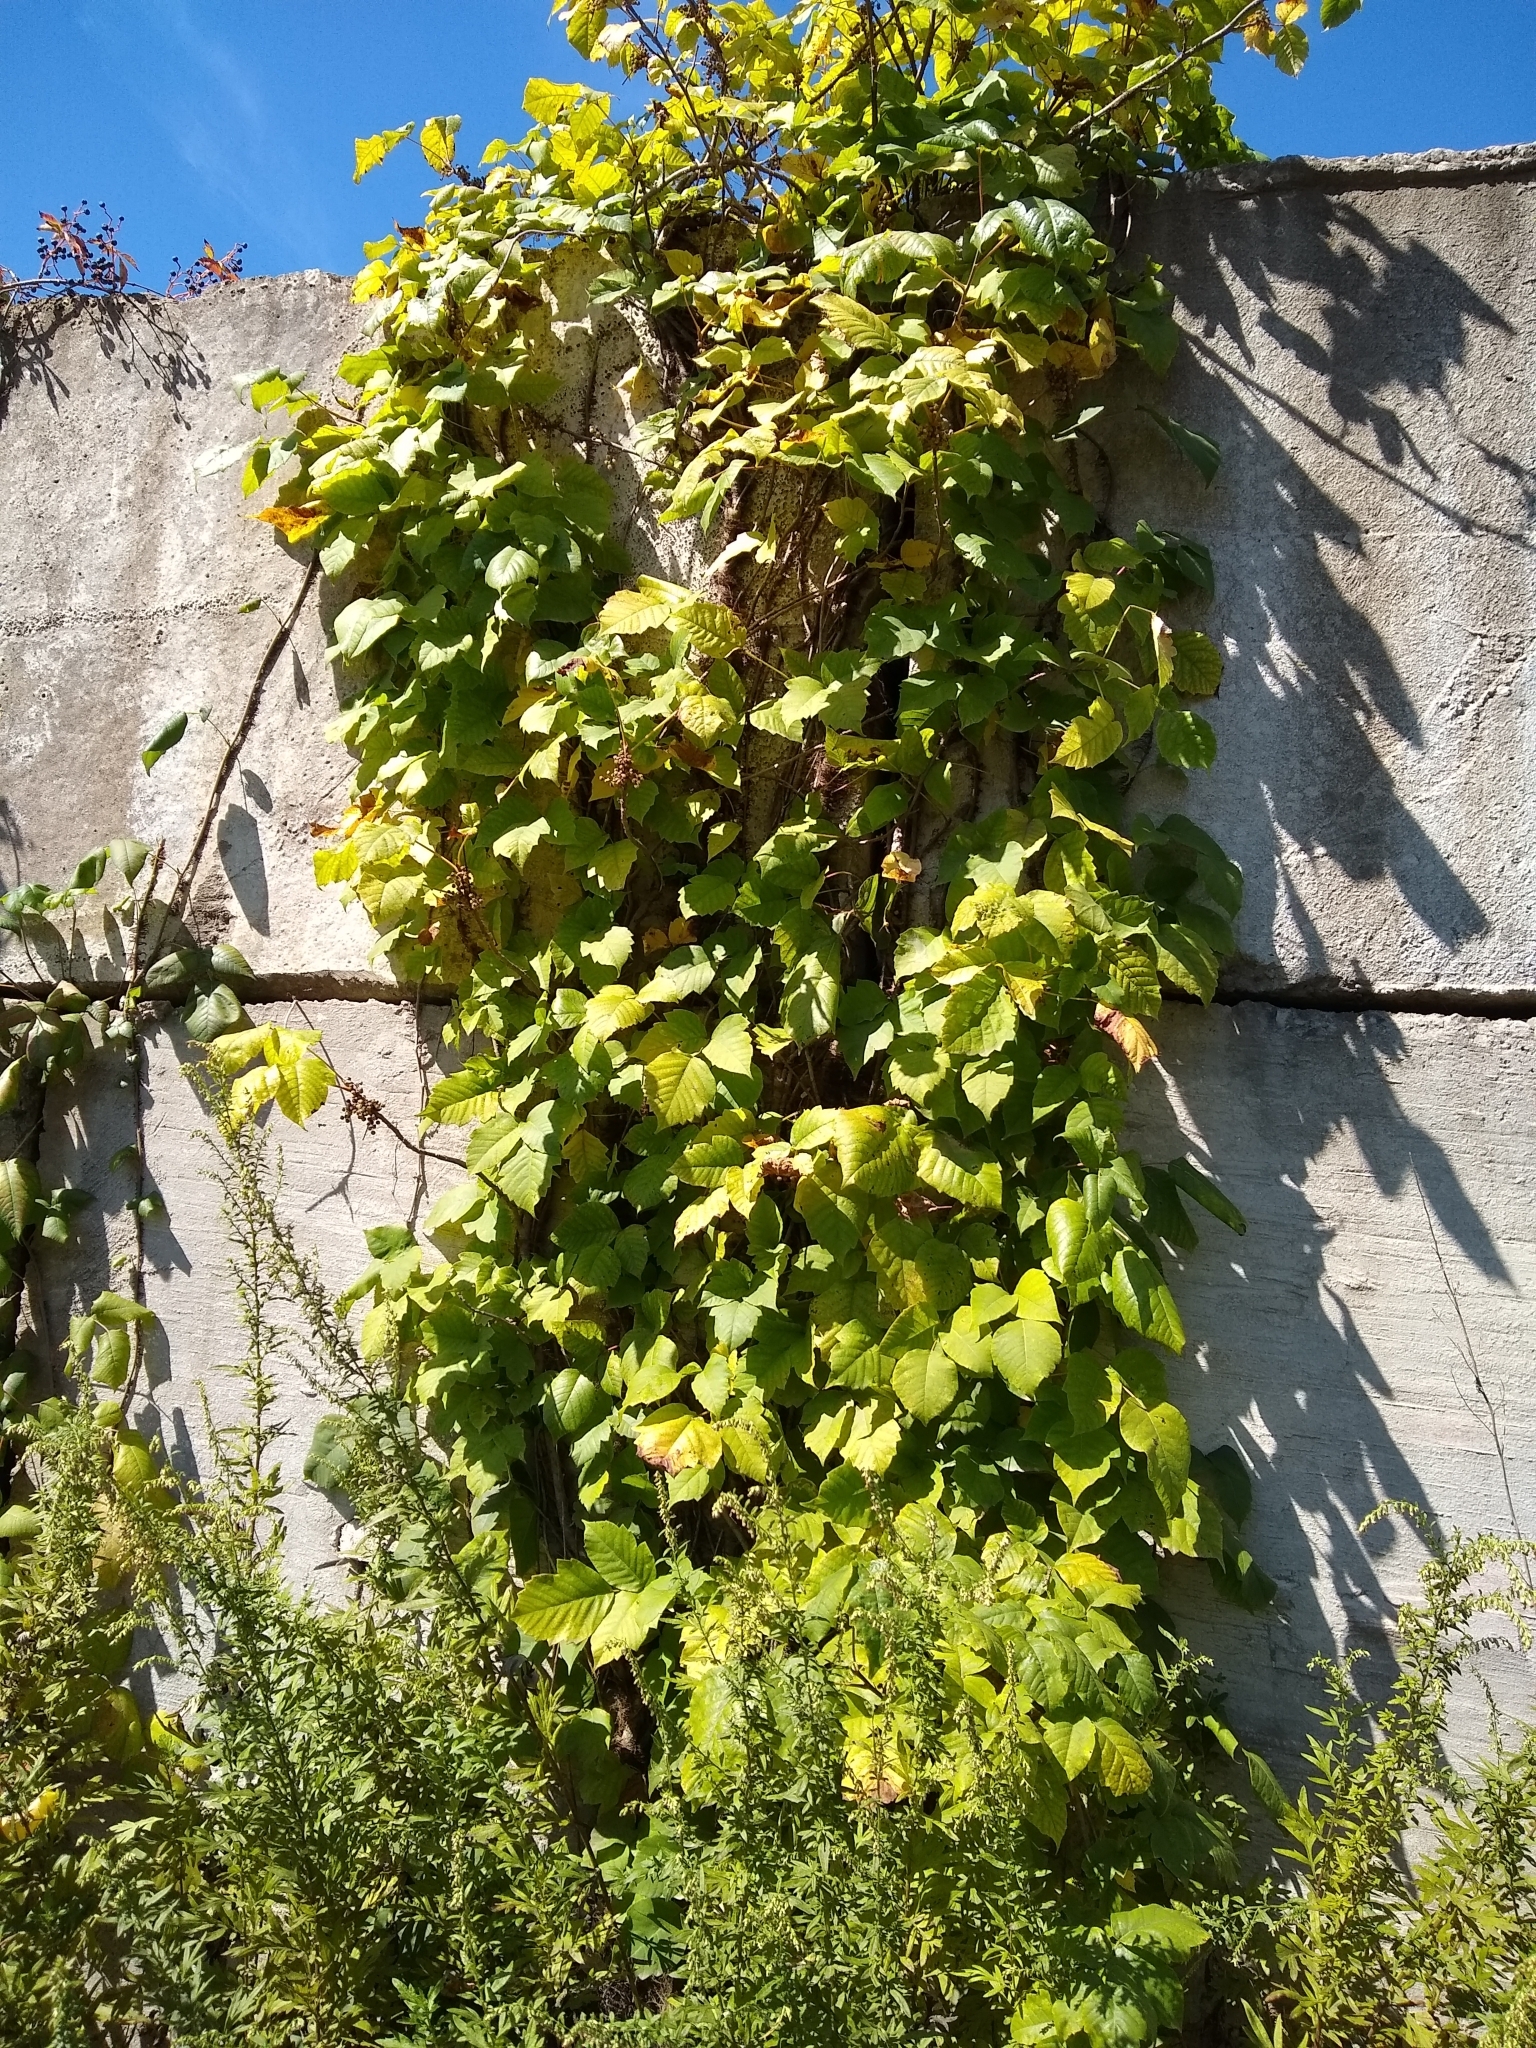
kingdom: Plantae
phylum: Tracheophyta
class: Magnoliopsida
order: Sapindales
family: Anacardiaceae
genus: Toxicodendron
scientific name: Toxicodendron radicans
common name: Poison ivy
